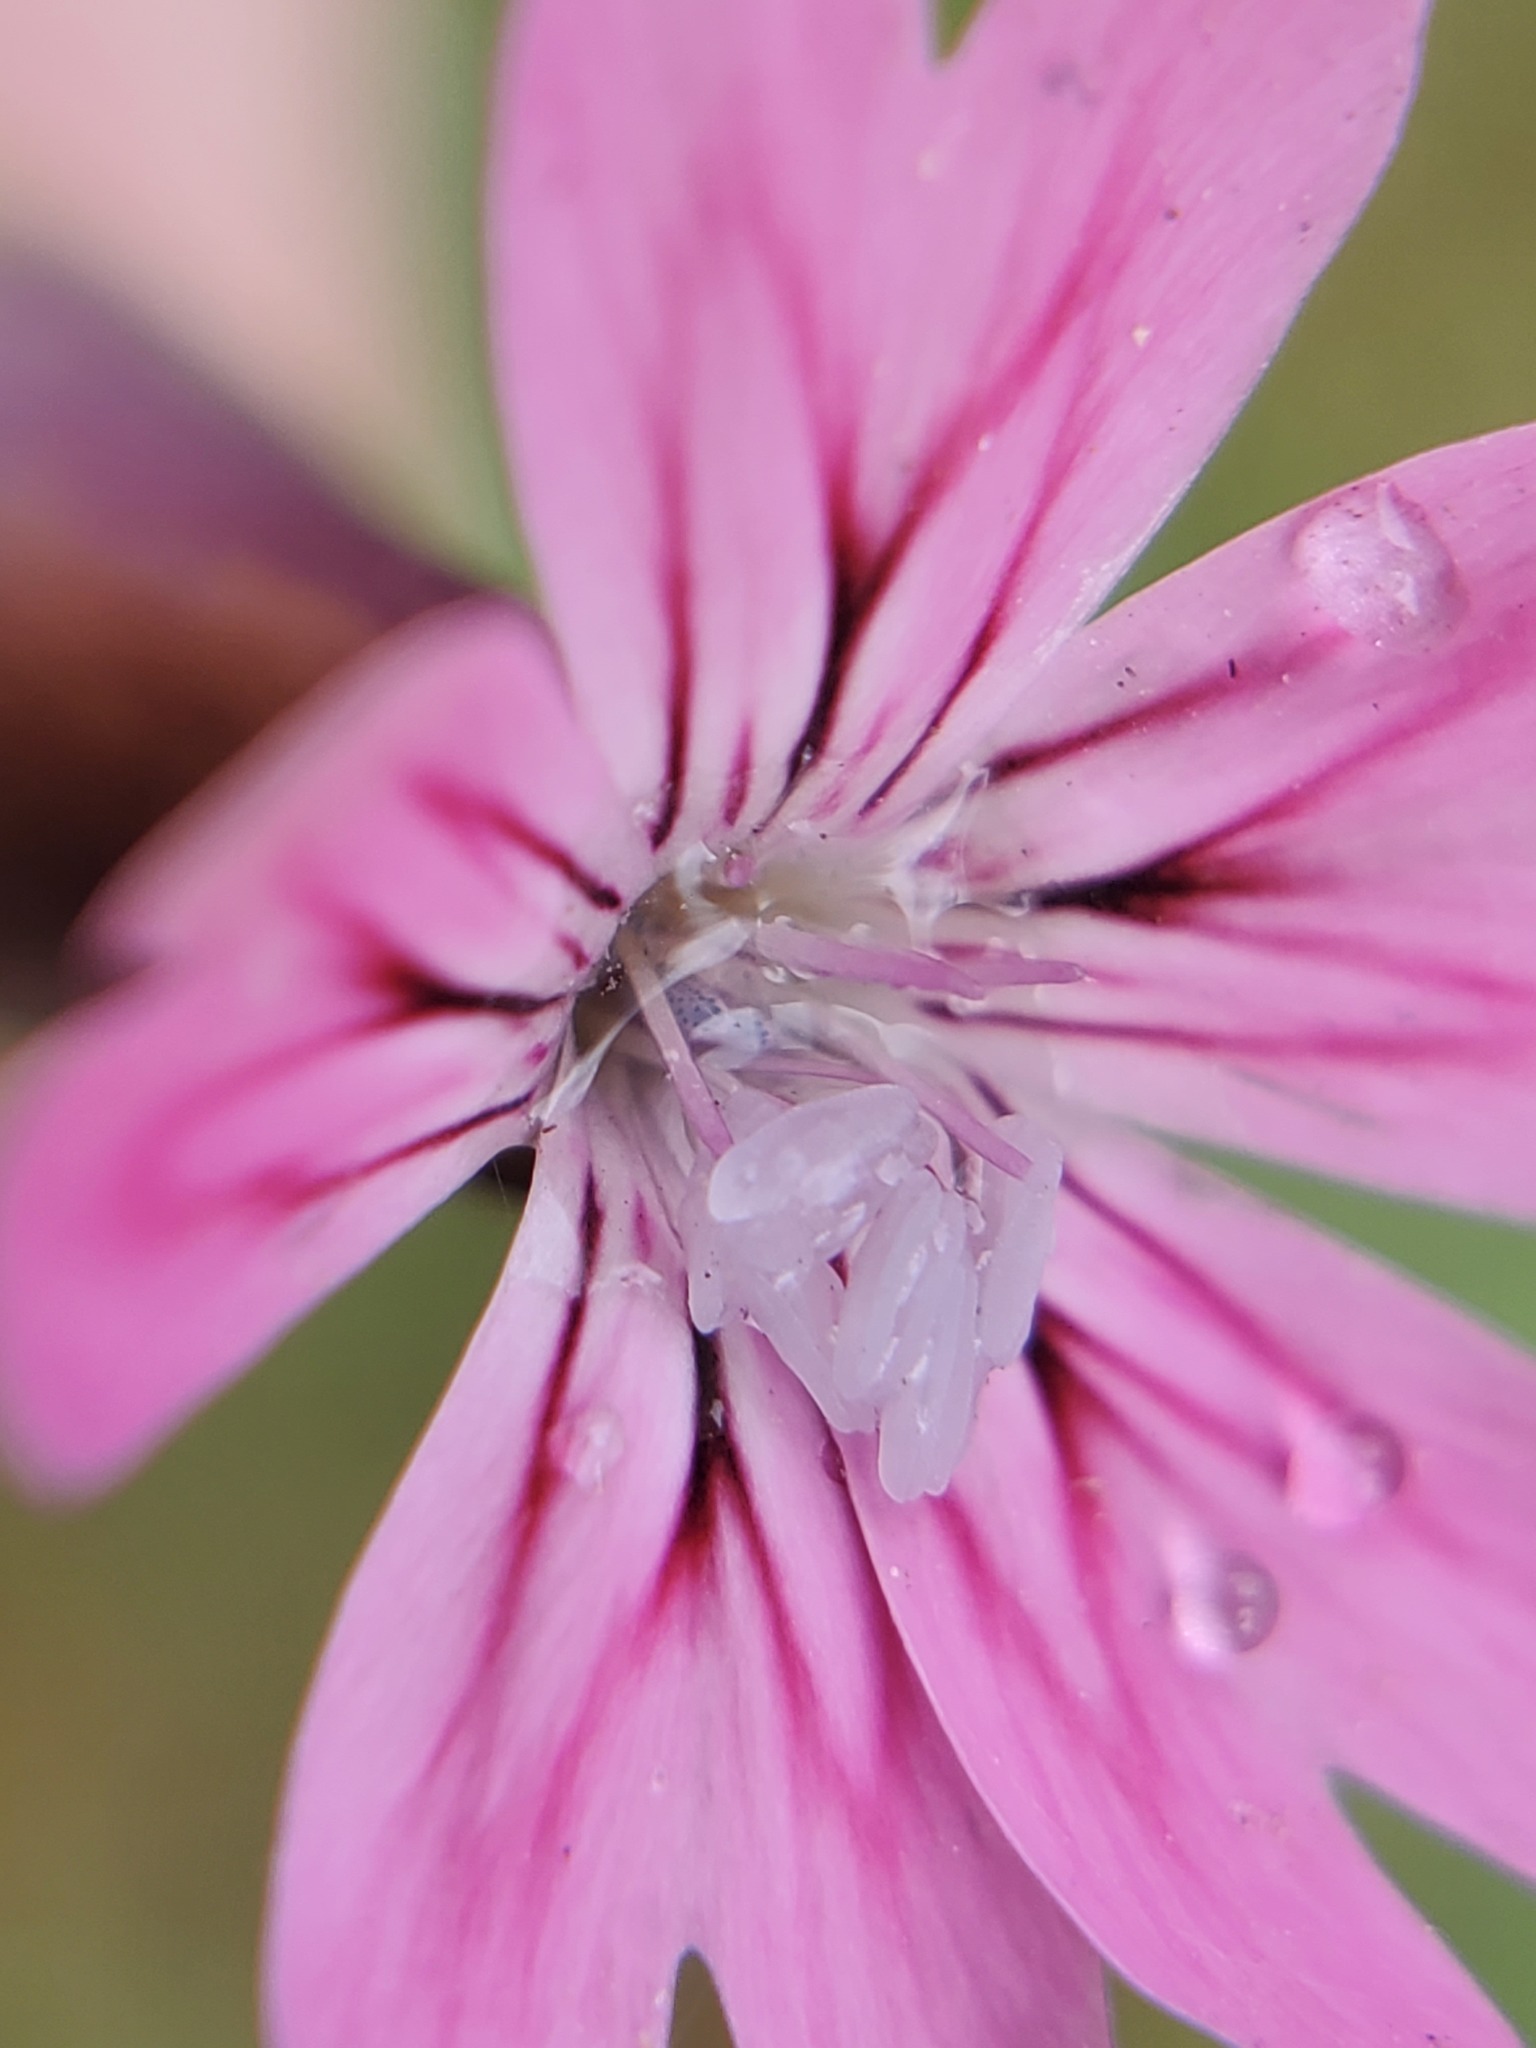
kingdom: Plantae
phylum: Tracheophyta
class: Magnoliopsida
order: Caryophyllales
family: Caryophyllaceae
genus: Petrorhagia
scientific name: Petrorhagia dubia
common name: Hairypink
